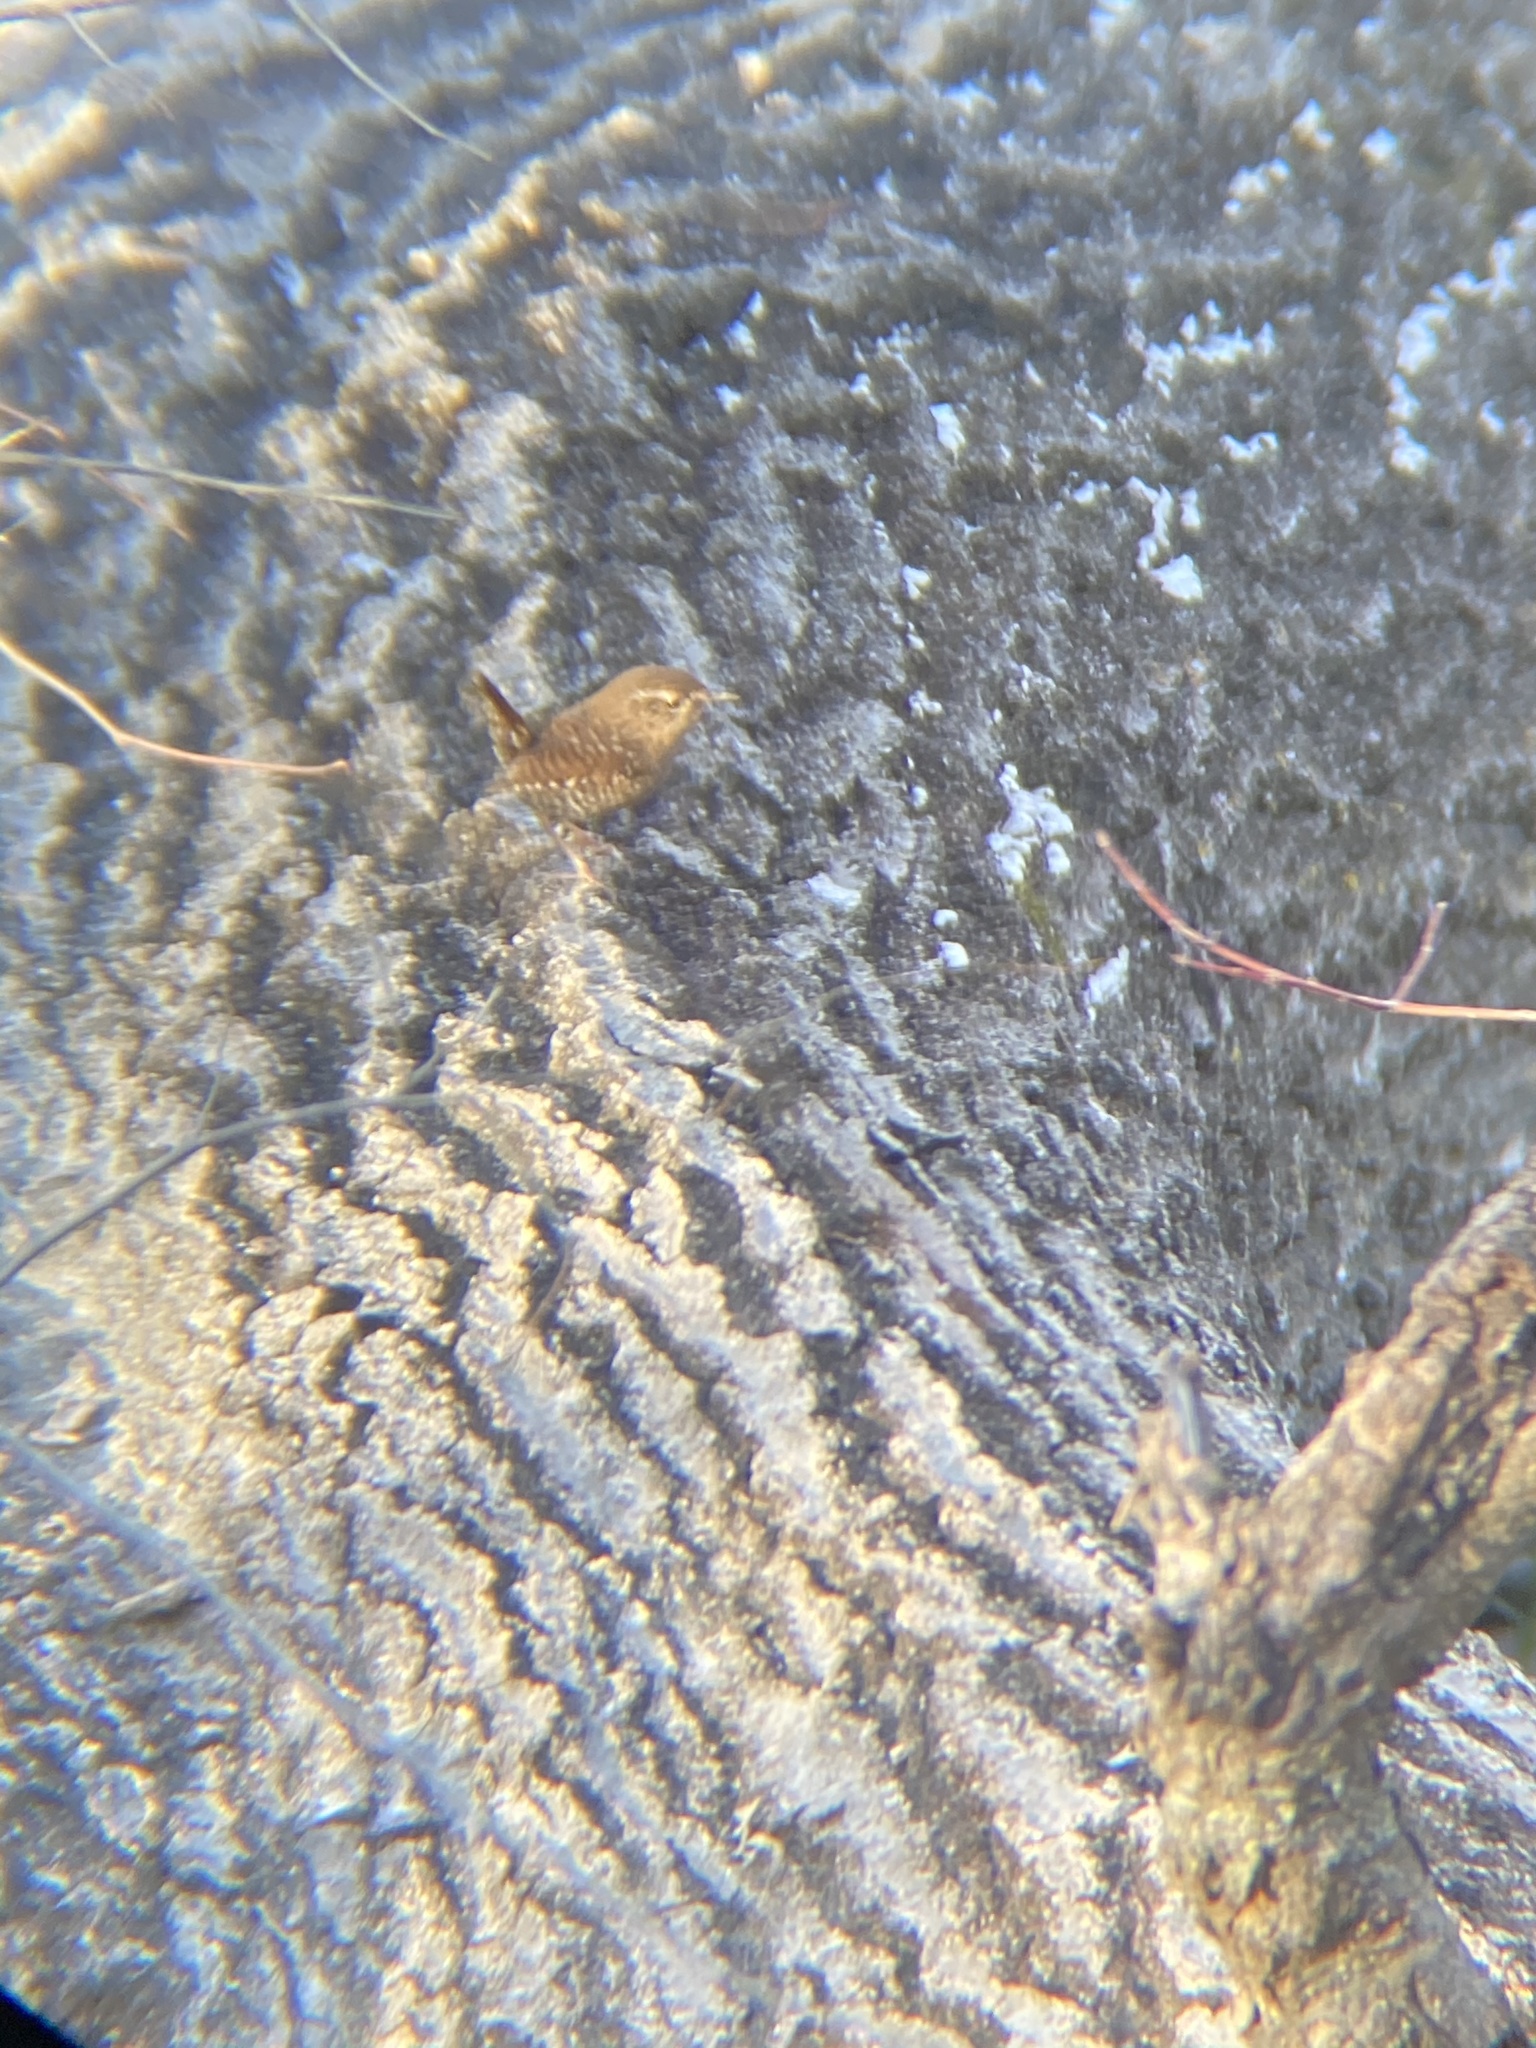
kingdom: Animalia
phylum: Chordata
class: Aves
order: Passeriformes
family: Troglodytidae
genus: Troglodytes
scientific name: Troglodytes hiemalis
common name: Winter wren
